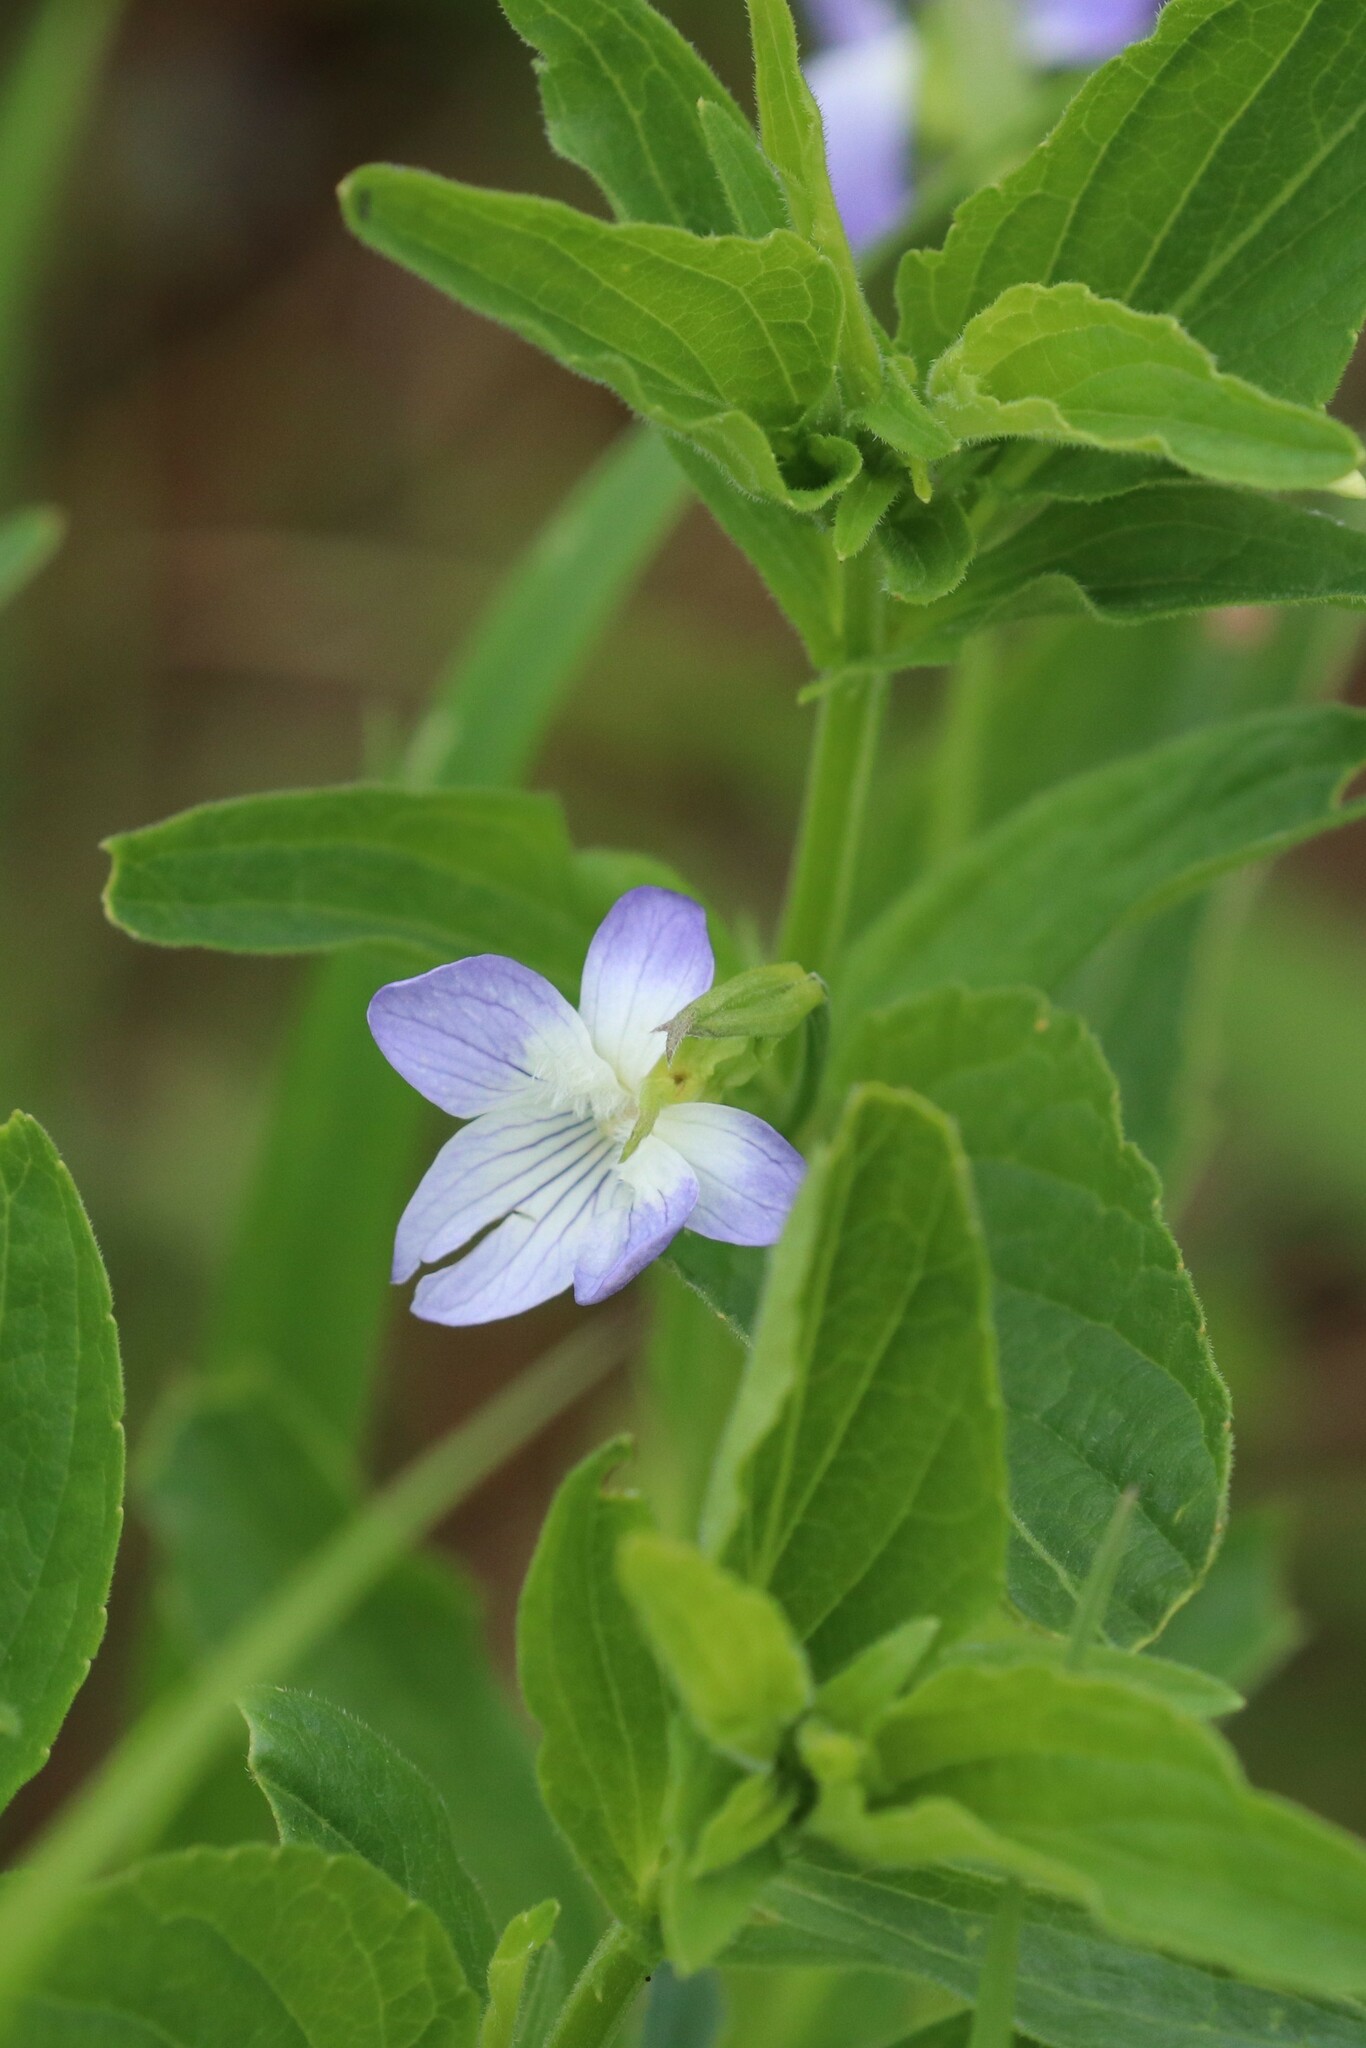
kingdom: Plantae
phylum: Tracheophyta
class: Magnoliopsida
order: Malpighiales
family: Violaceae
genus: Viola
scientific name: Viola elatior
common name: Tall violet
